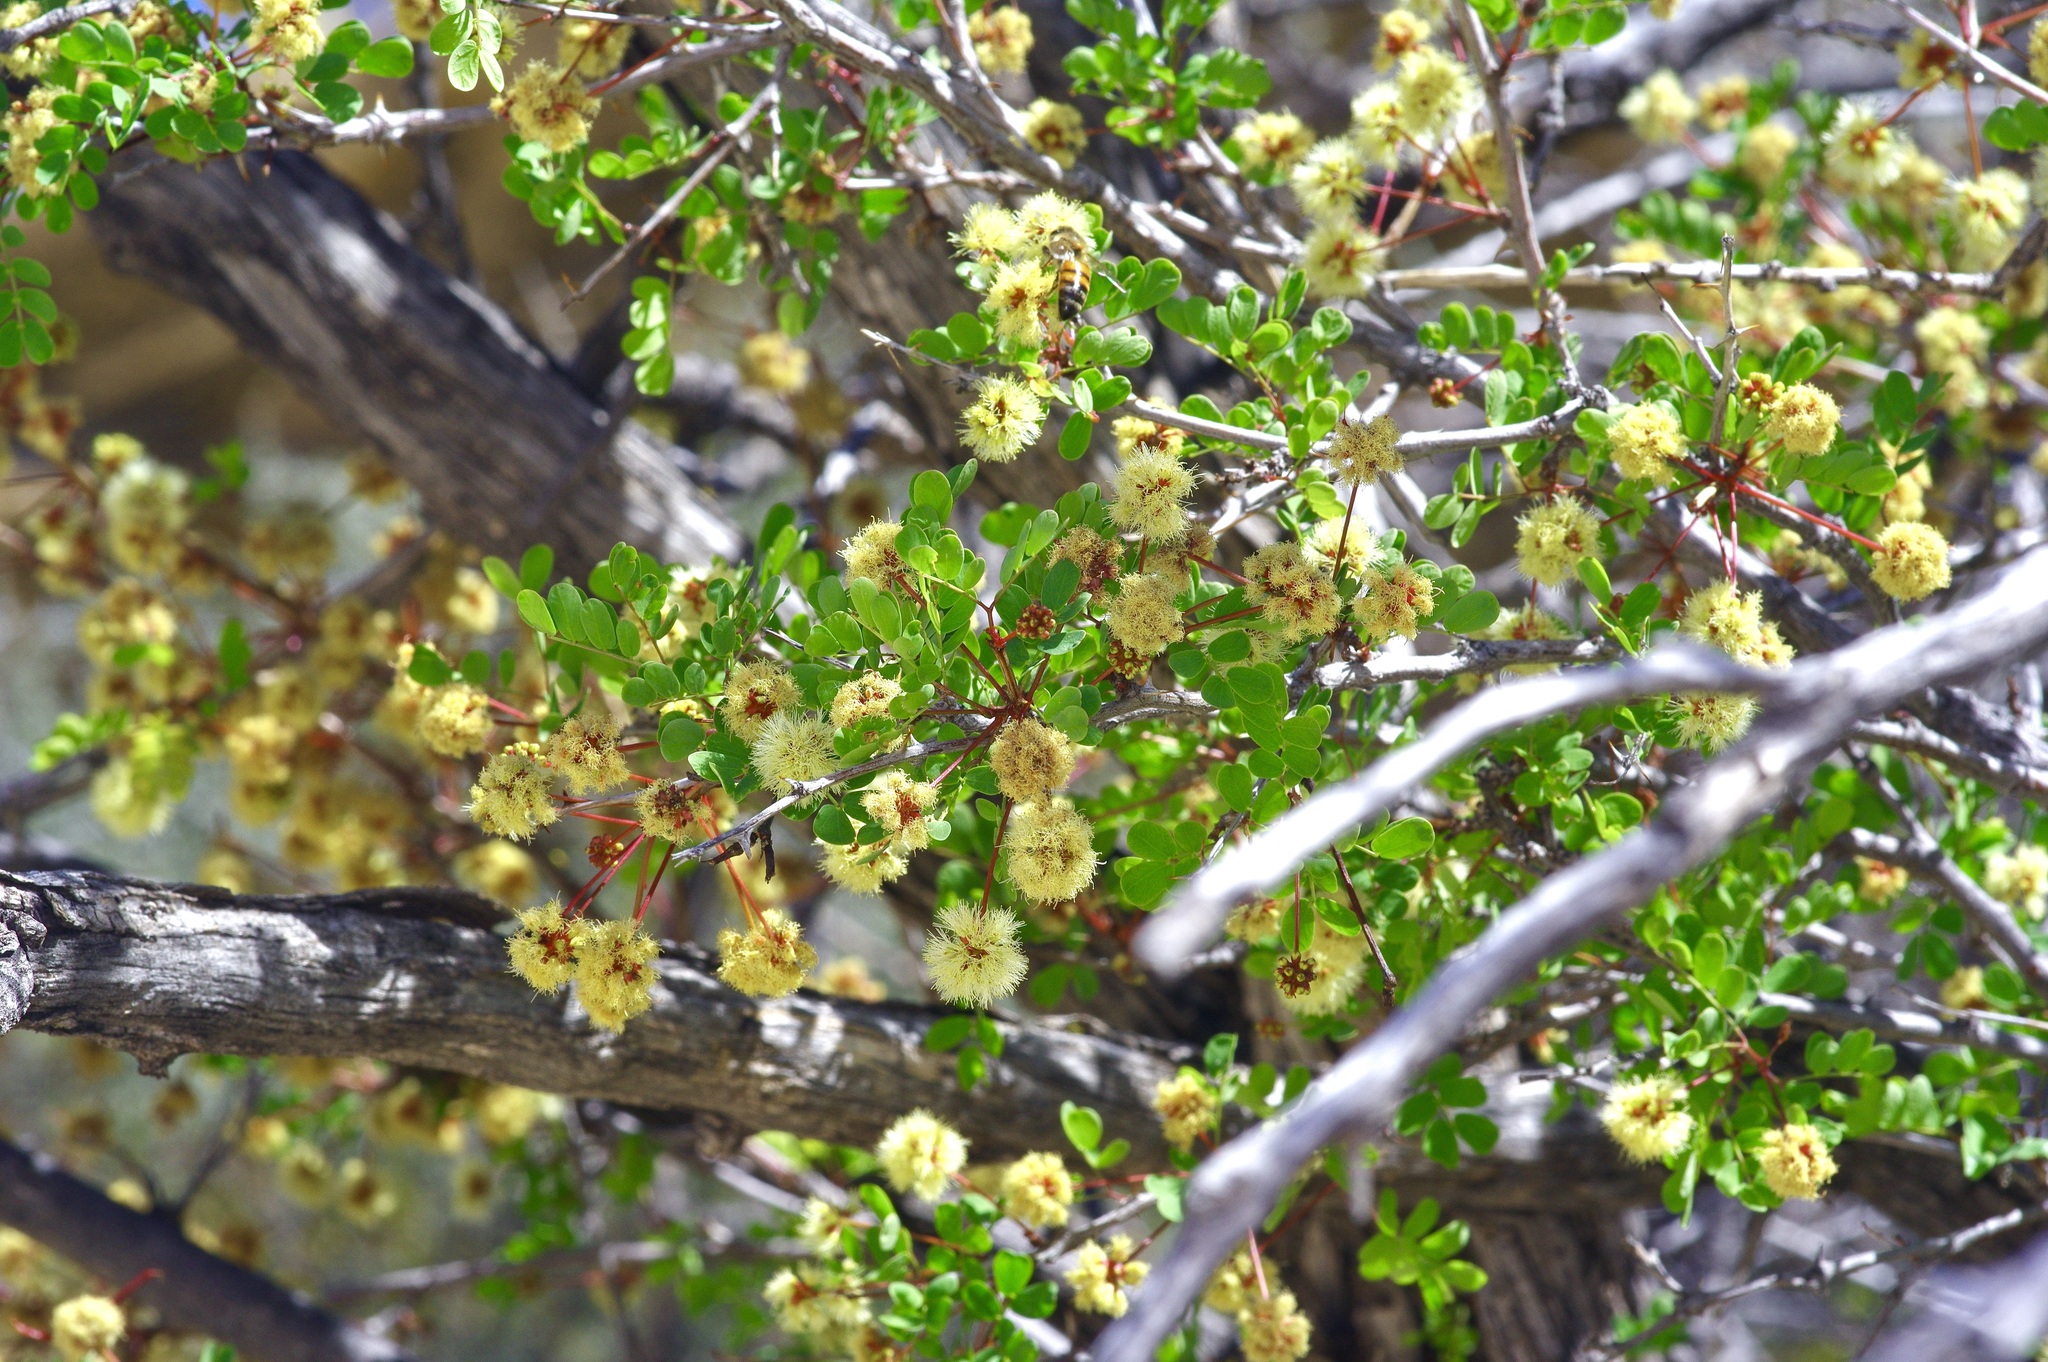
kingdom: Plantae
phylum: Tracheophyta
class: Magnoliopsida
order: Fabales
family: Fabaceae
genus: Senegalia
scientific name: Senegalia roemeriana
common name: Roemer's acacia
